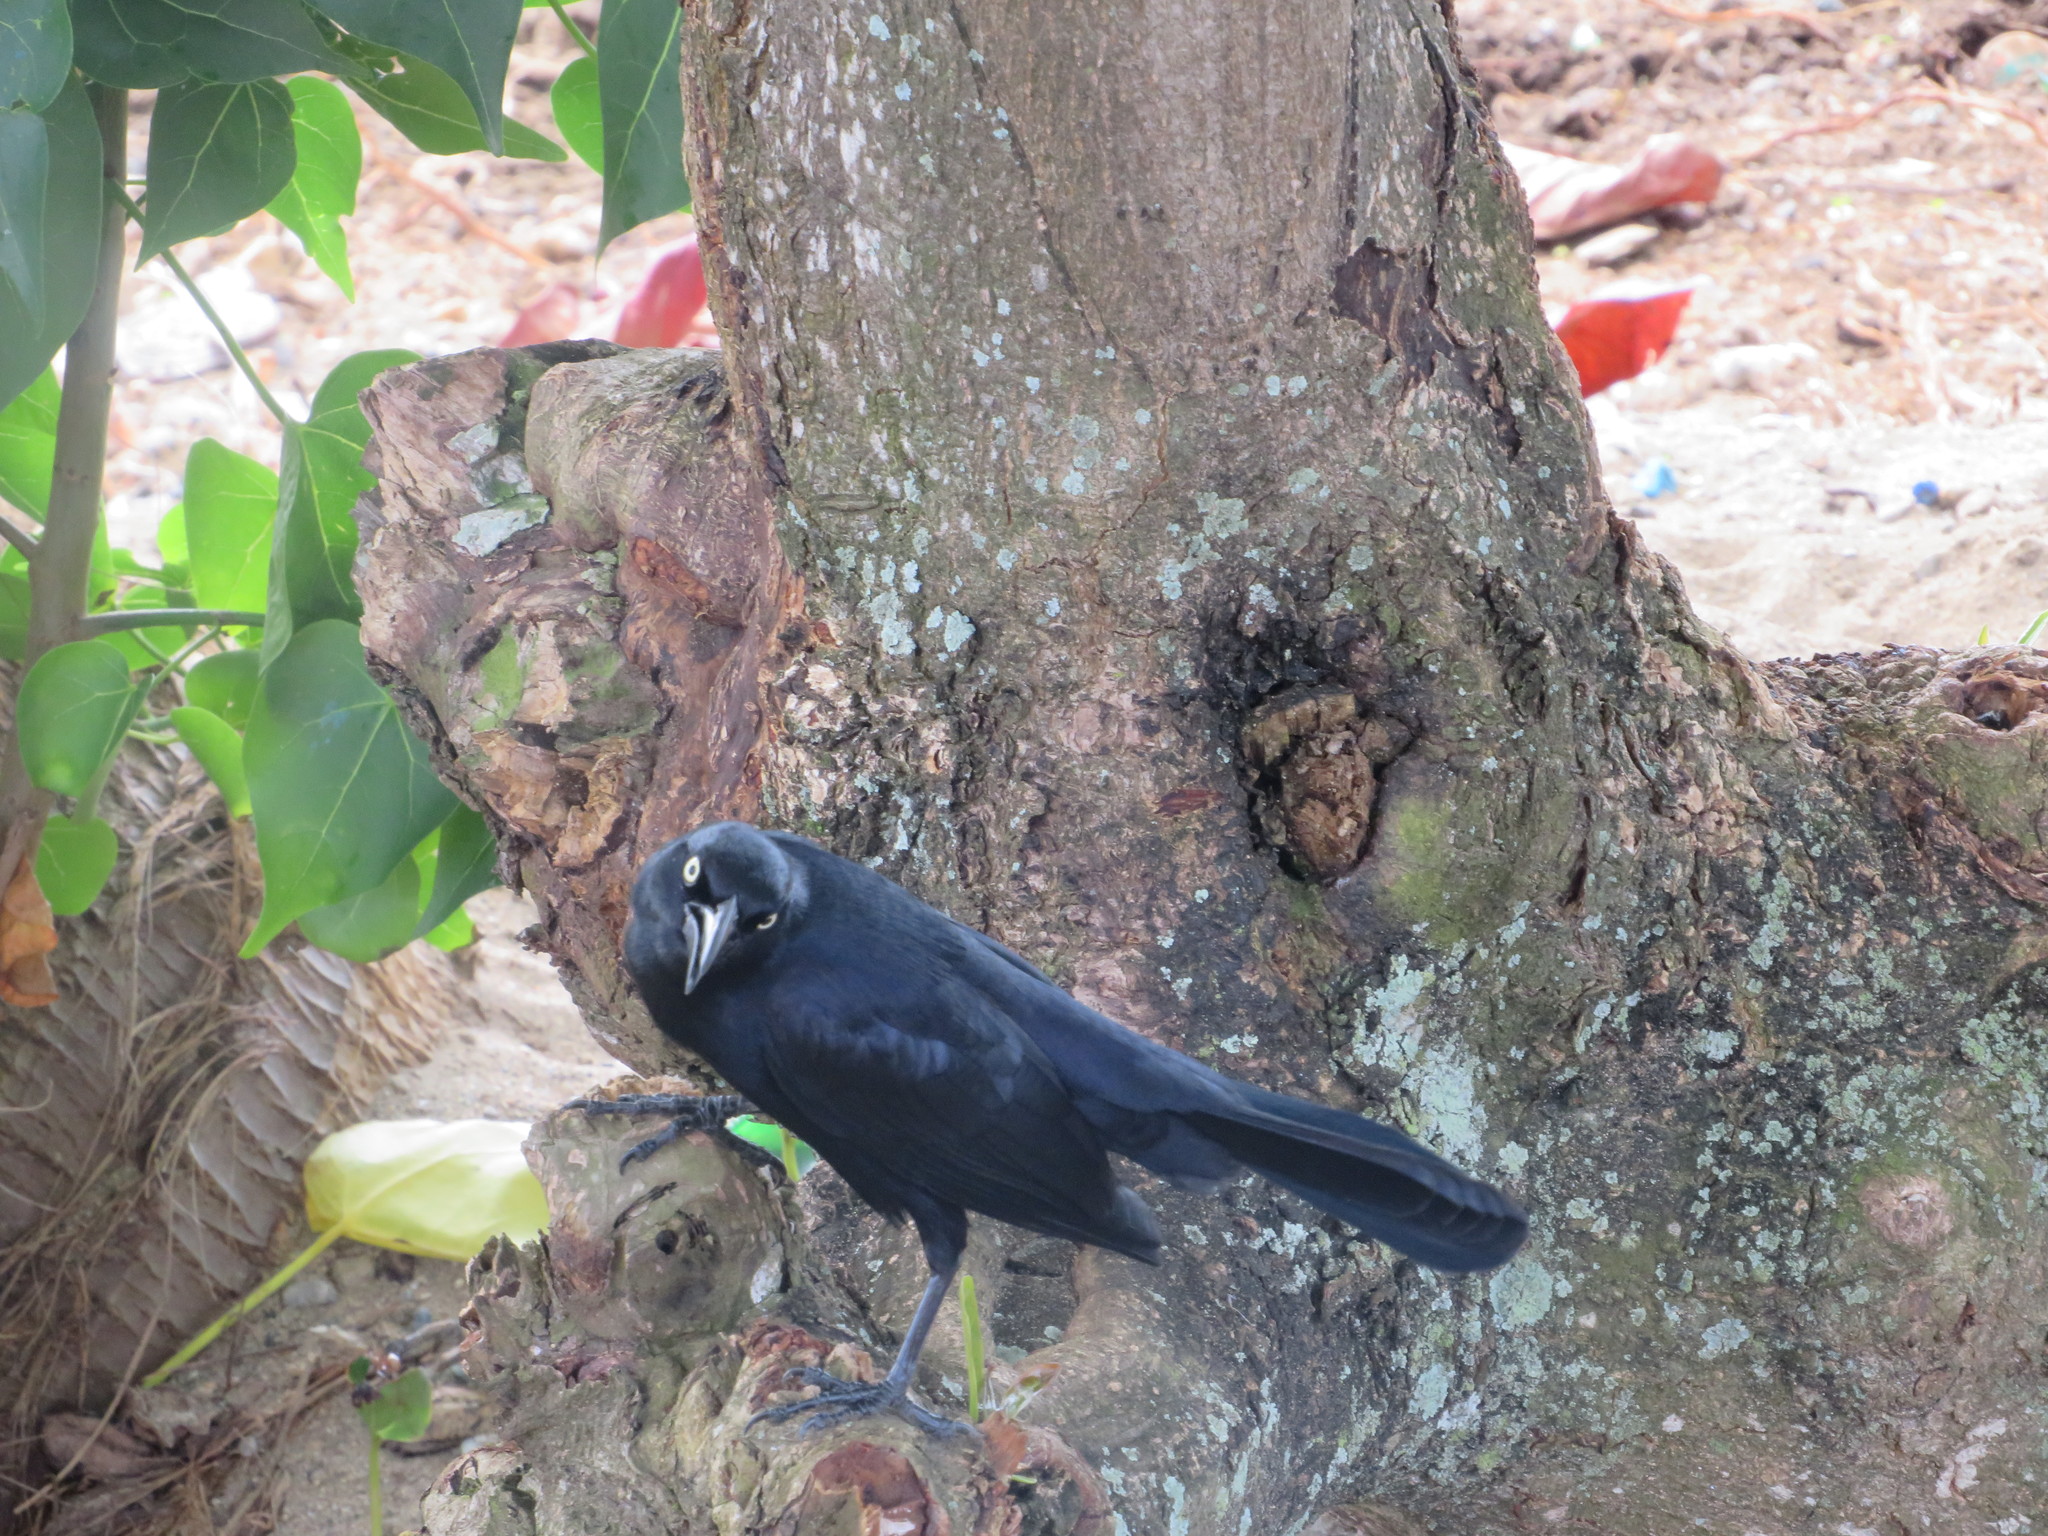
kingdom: Animalia
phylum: Chordata
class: Aves
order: Passeriformes
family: Icteridae
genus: Quiscalus
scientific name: Quiscalus niger
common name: Greater antillean grackle
